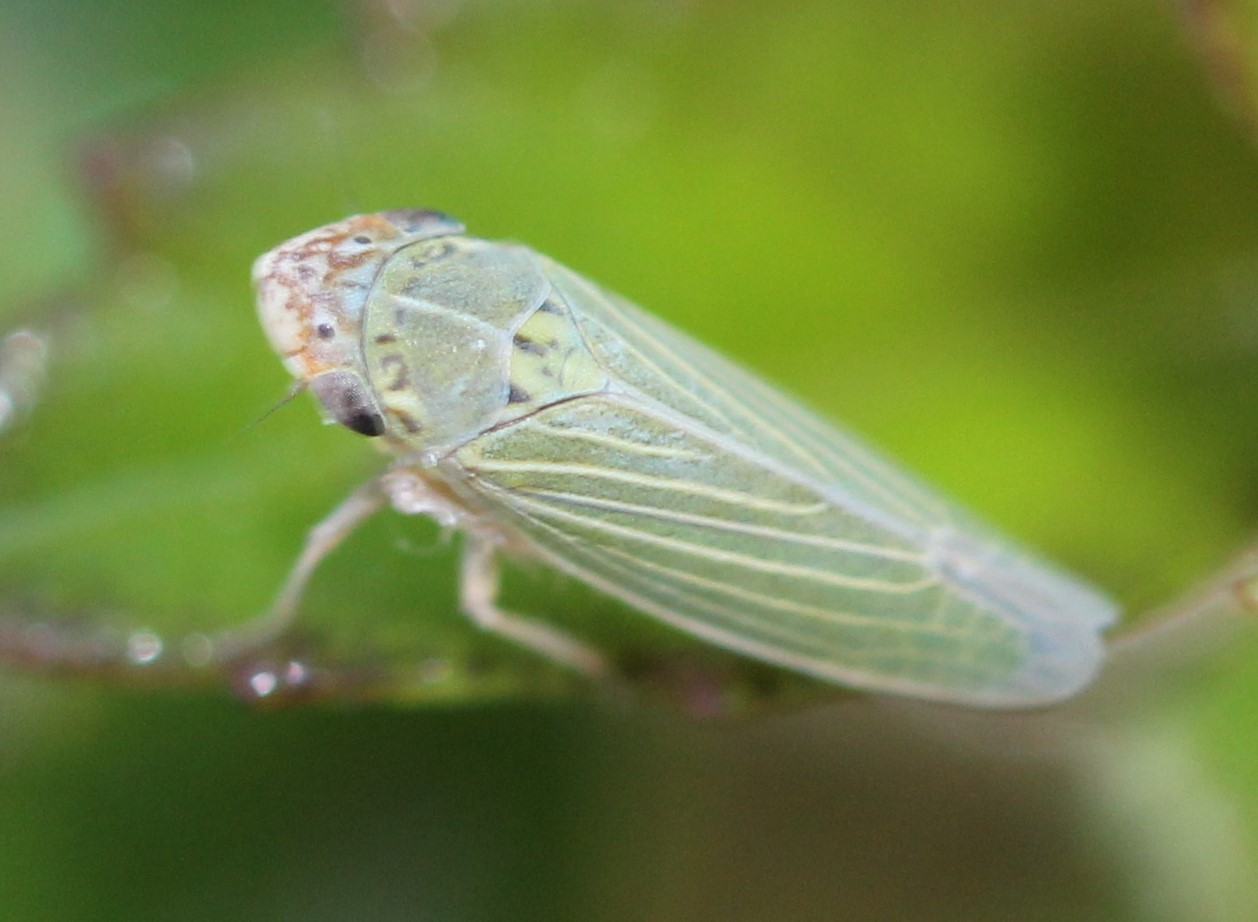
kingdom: Animalia
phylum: Arthropoda
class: Insecta
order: Hemiptera
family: Cicadellidae
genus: Xyphon
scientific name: Xyphon reticulatum
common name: Planthopper
